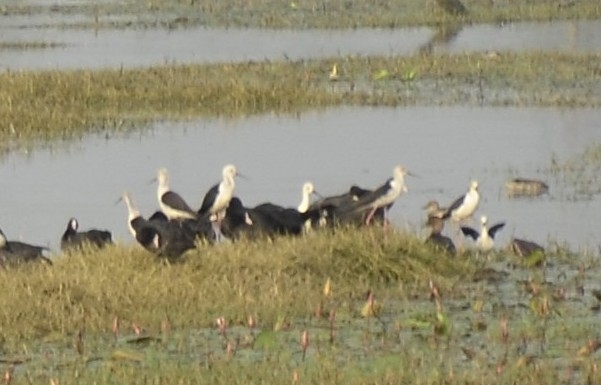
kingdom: Animalia
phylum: Chordata
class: Aves
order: Charadriiformes
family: Recurvirostridae
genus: Himantopus
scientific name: Himantopus himantopus
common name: Black-winged stilt
